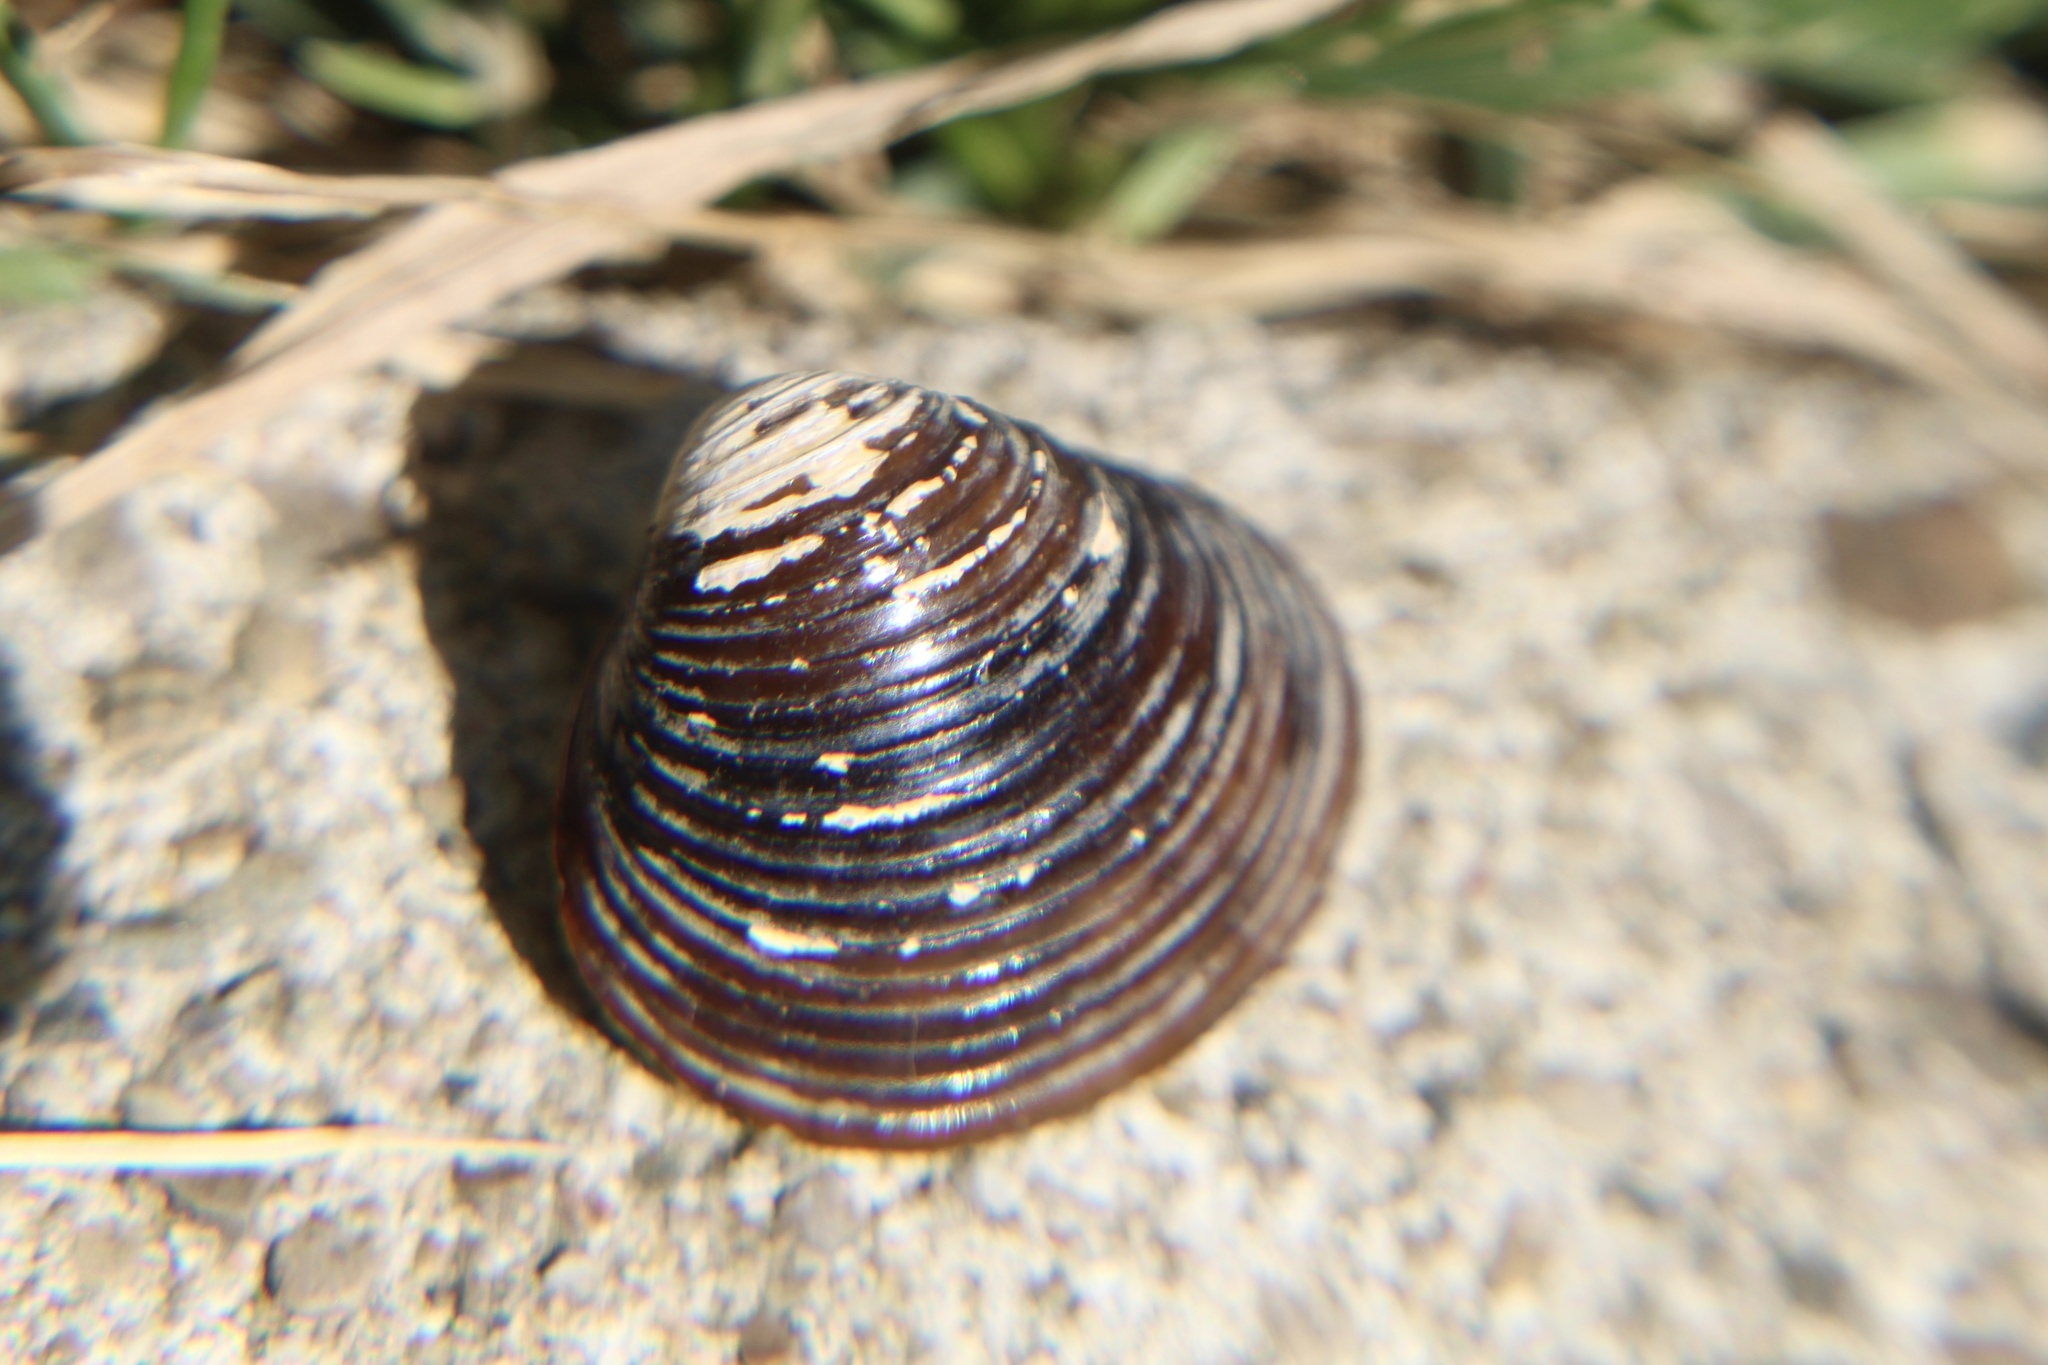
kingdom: Animalia
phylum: Mollusca
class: Bivalvia
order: Venerida
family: Cyrenidae
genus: Corbicula
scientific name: Corbicula fluminea
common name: Asian clam
